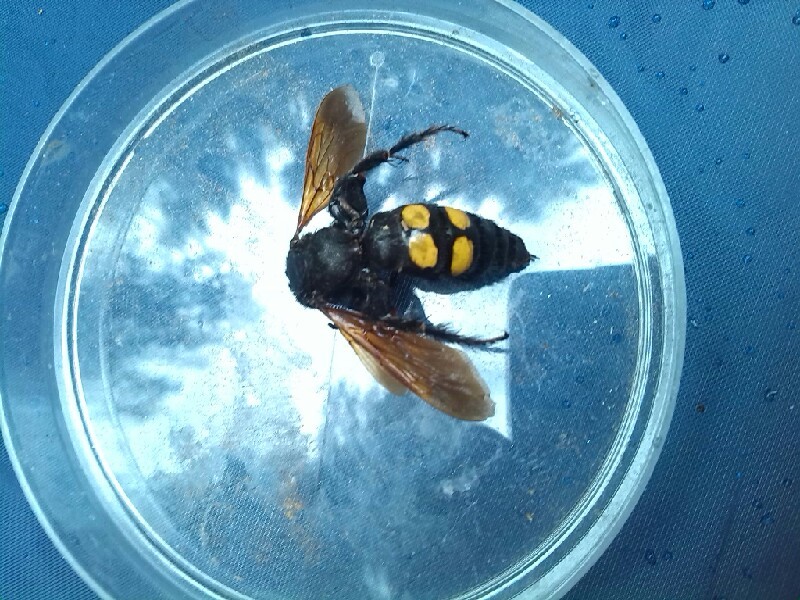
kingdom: Animalia
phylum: Arthropoda
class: Insecta
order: Hymenoptera
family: Scoliidae
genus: Megascolia
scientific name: Megascolia maculata
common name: Mammoth wasp
